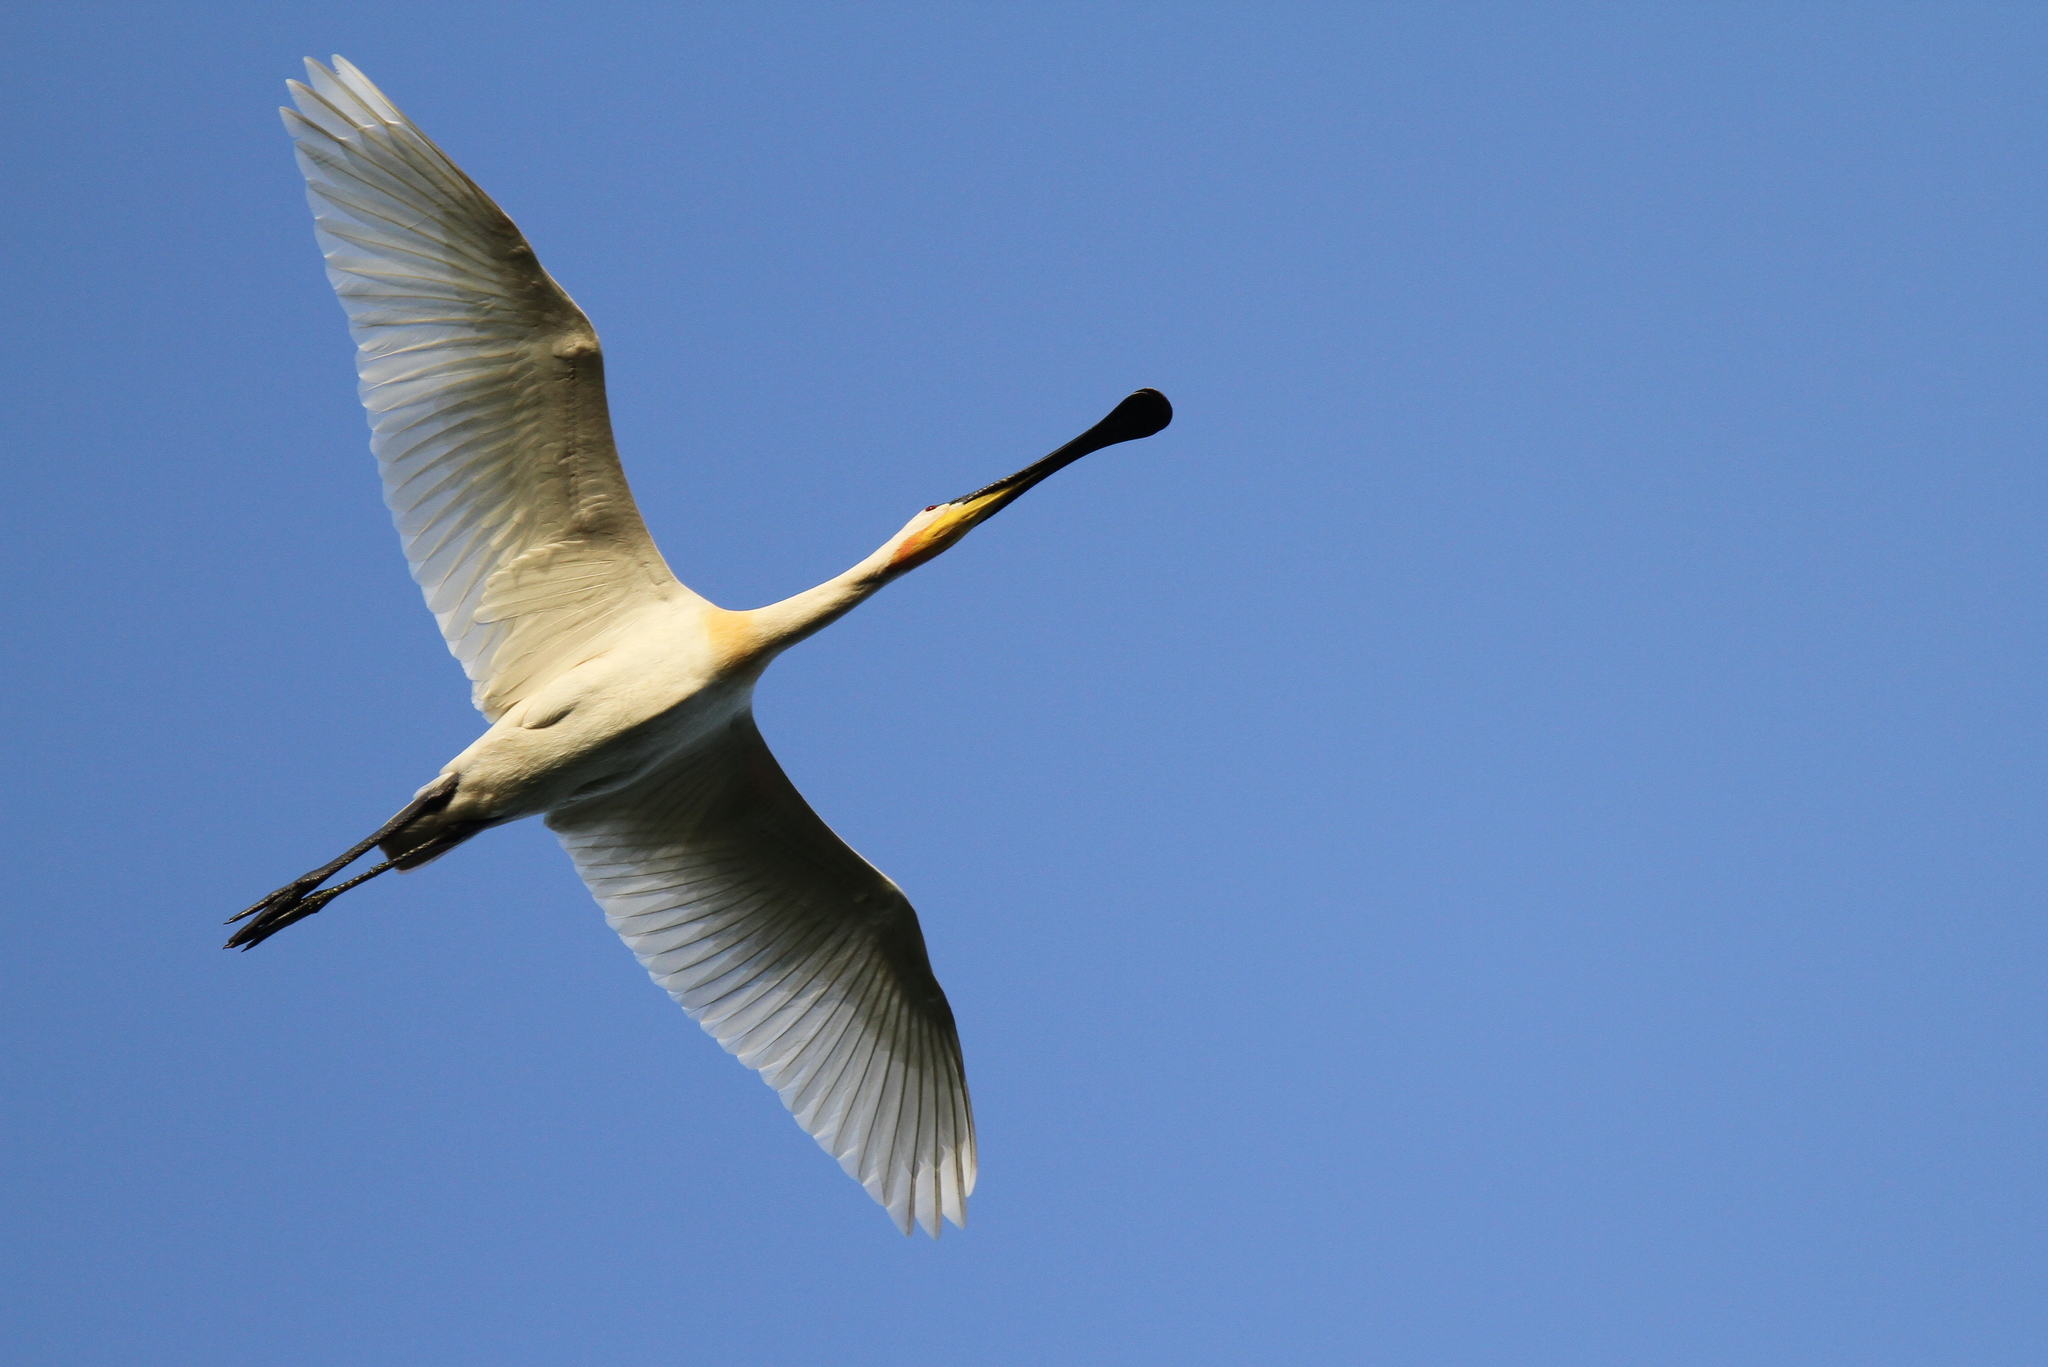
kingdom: Animalia
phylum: Chordata
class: Aves
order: Pelecaniformes
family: Threskiornithidae
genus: Platalea
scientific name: Platalea leucorodia
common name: Eurasian spoonbill
